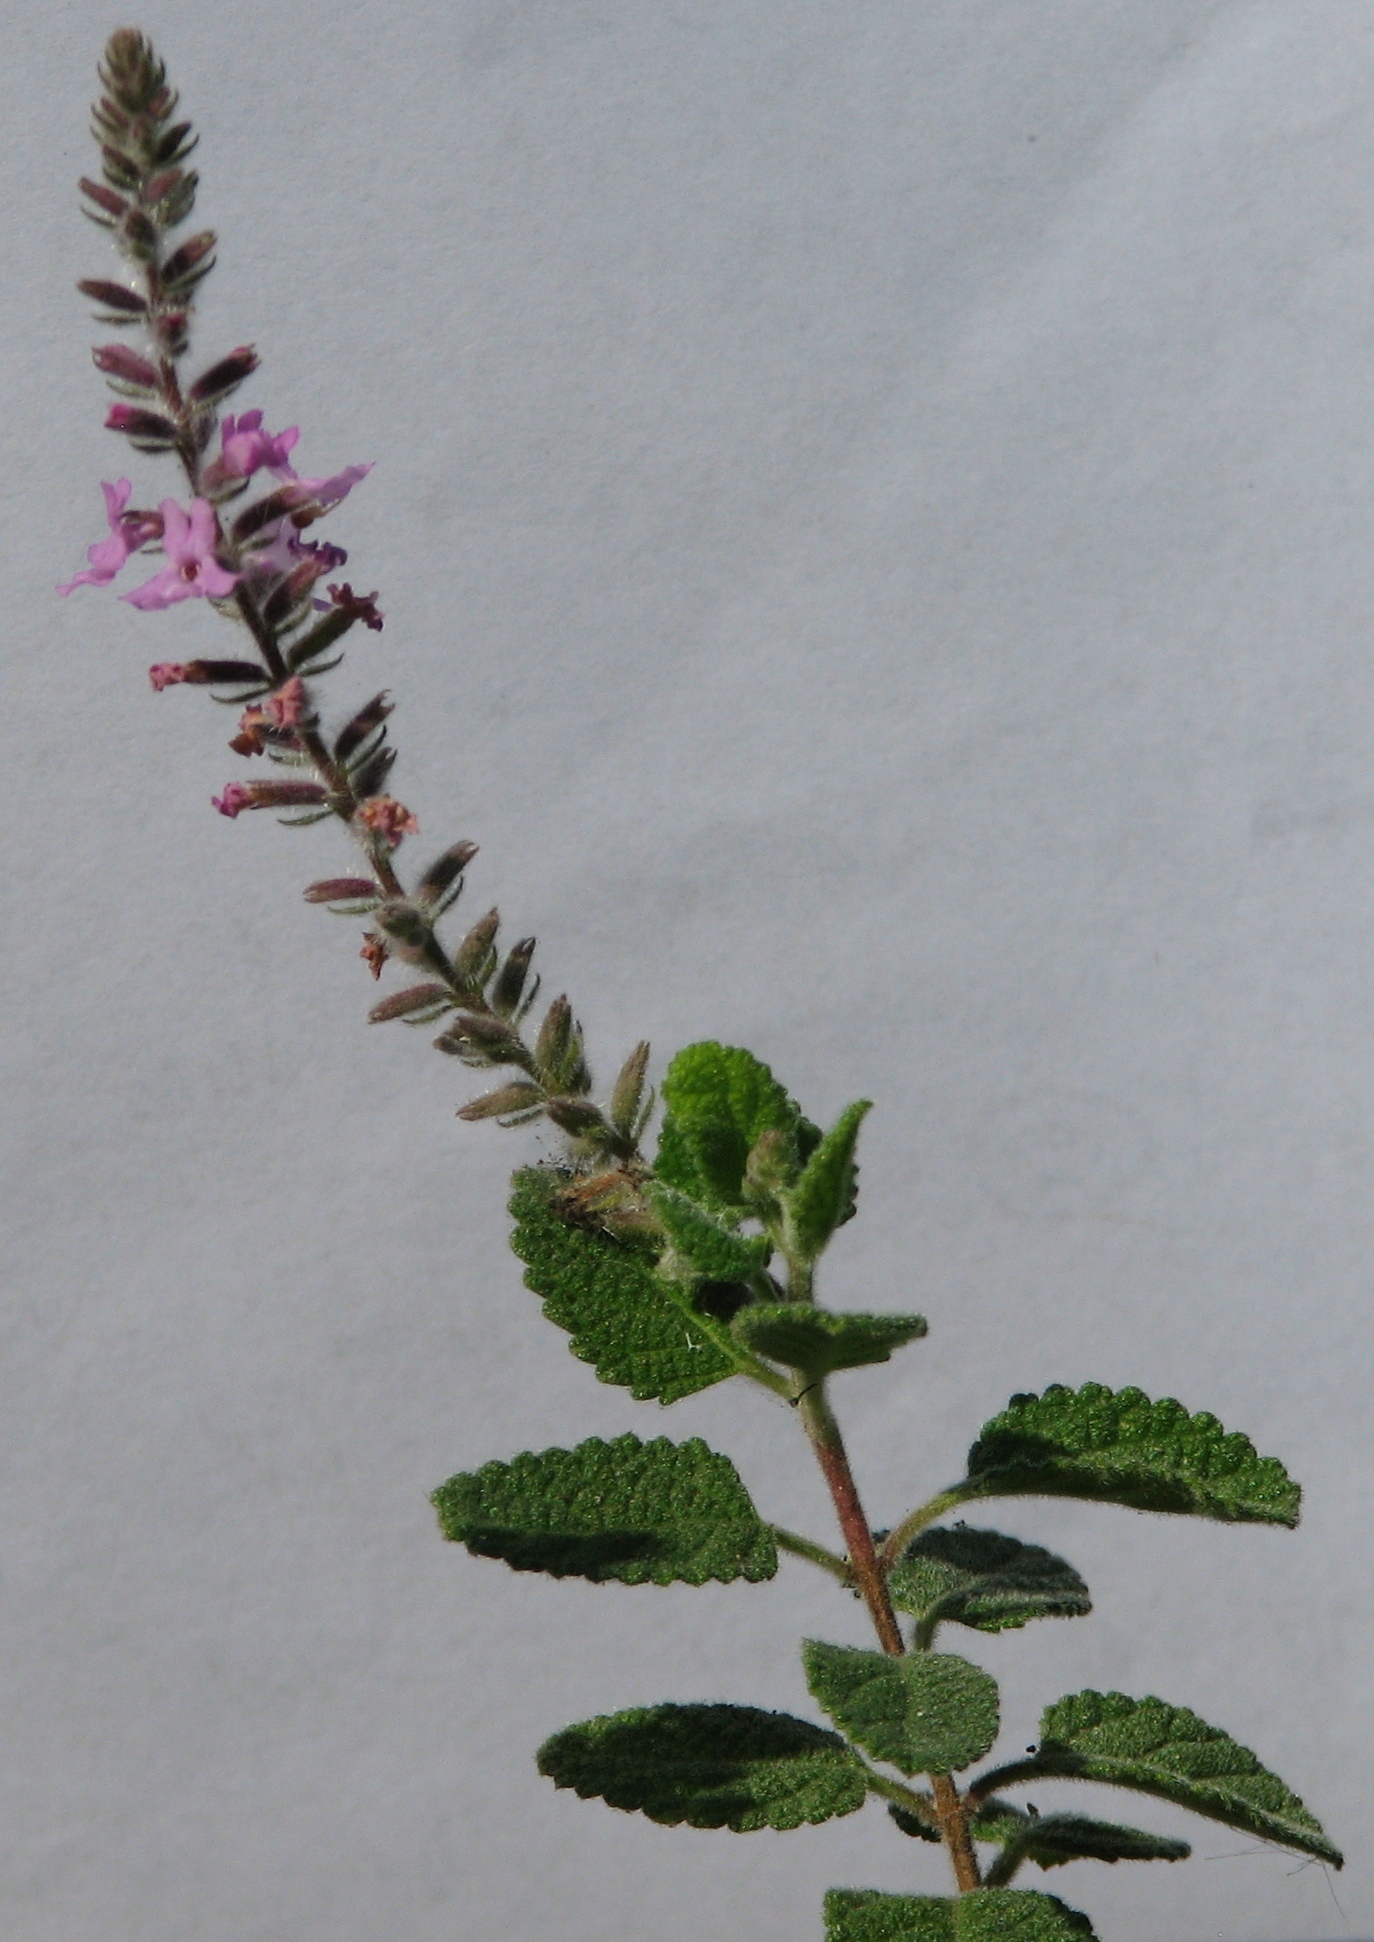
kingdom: Plantae
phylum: Tracheophyta
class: Magnoliopsida
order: Lamiales
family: Verbenaceae
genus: Aloysia
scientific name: Aloysia macrostachya
